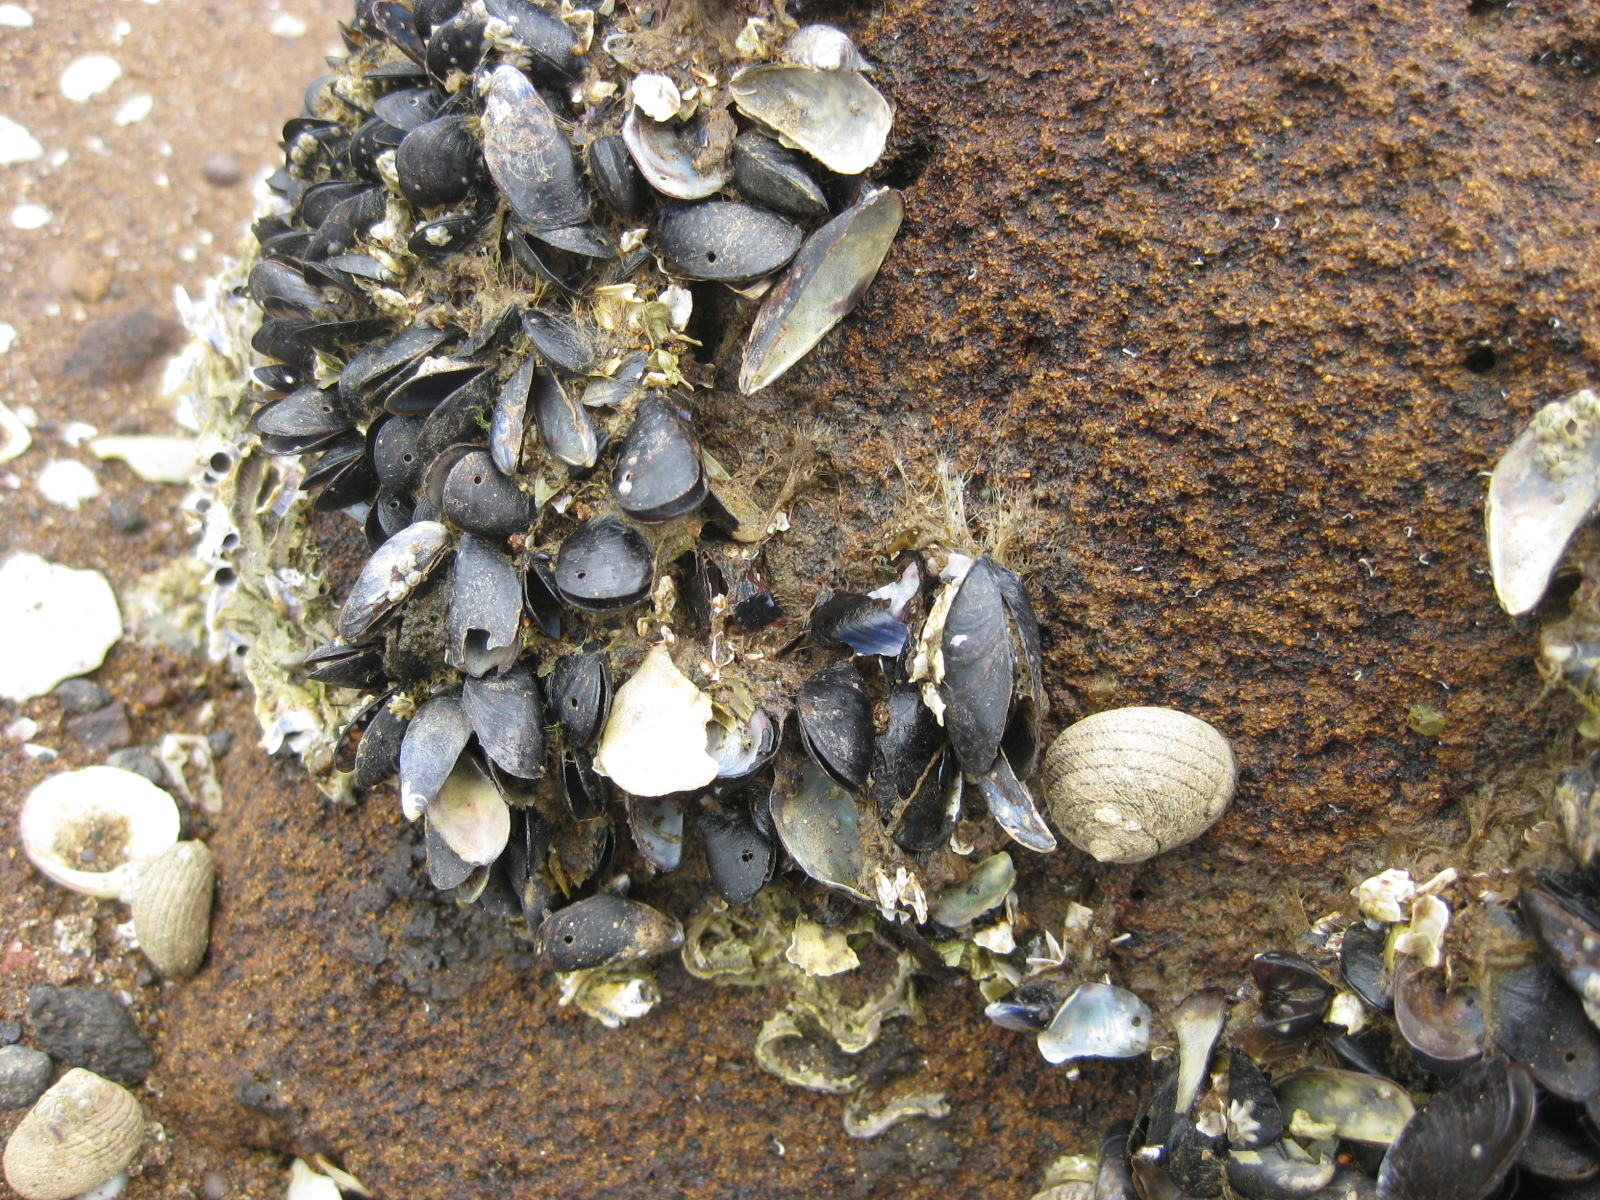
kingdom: Animalia
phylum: Mollusca
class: Bivalvia
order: Mytilida
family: Mytilidae
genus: Xenostrobus
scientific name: Xenostrobus neozelanicus
